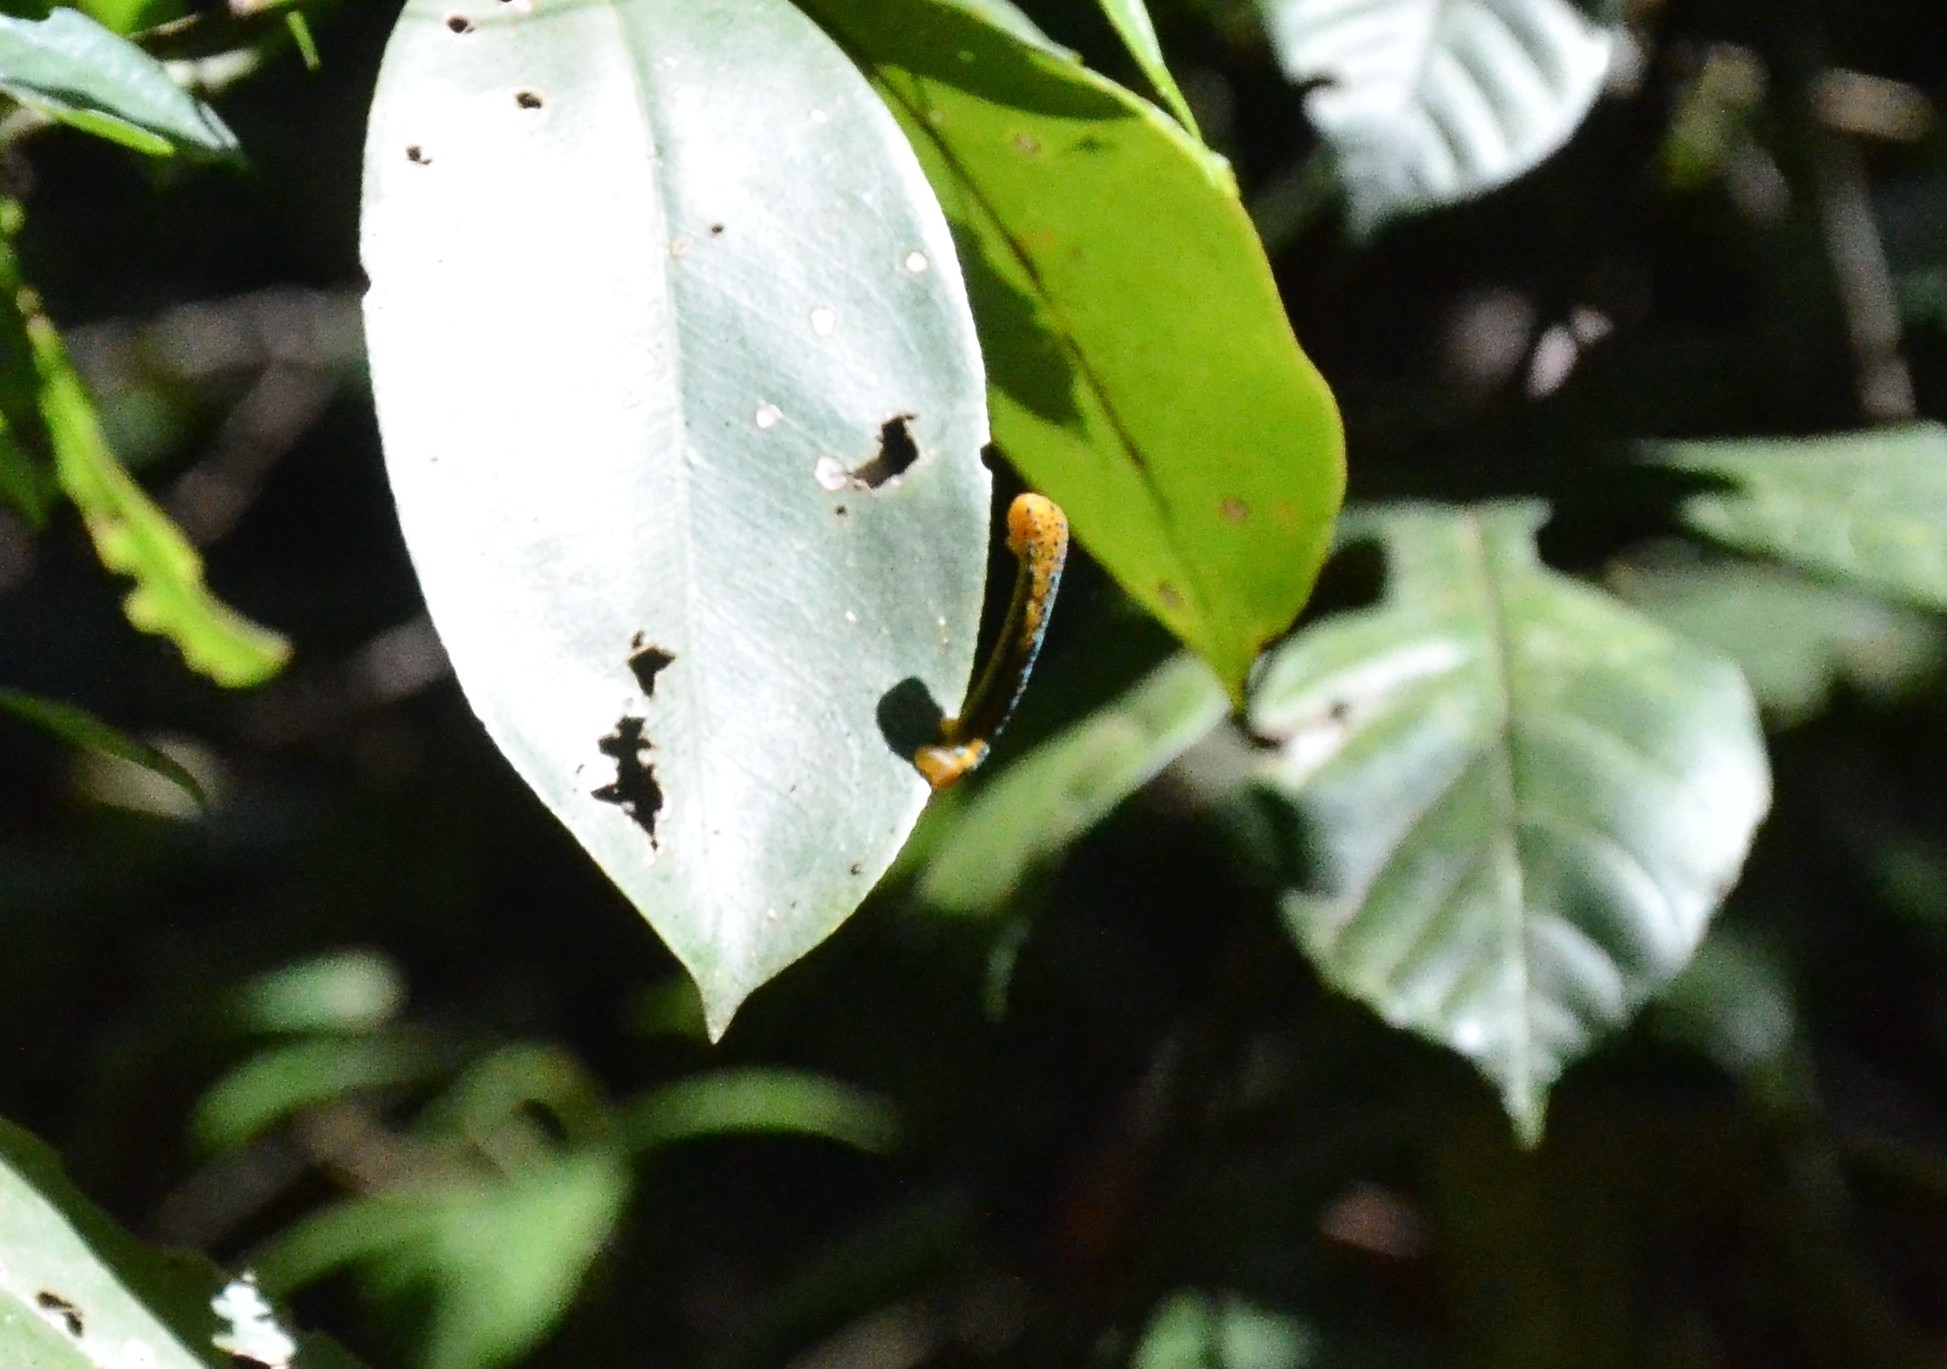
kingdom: Animalia
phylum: Arthropoda
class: Insecta
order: Lepidoptera
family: Geometridae
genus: Dysphania
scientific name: Dysphania percota
